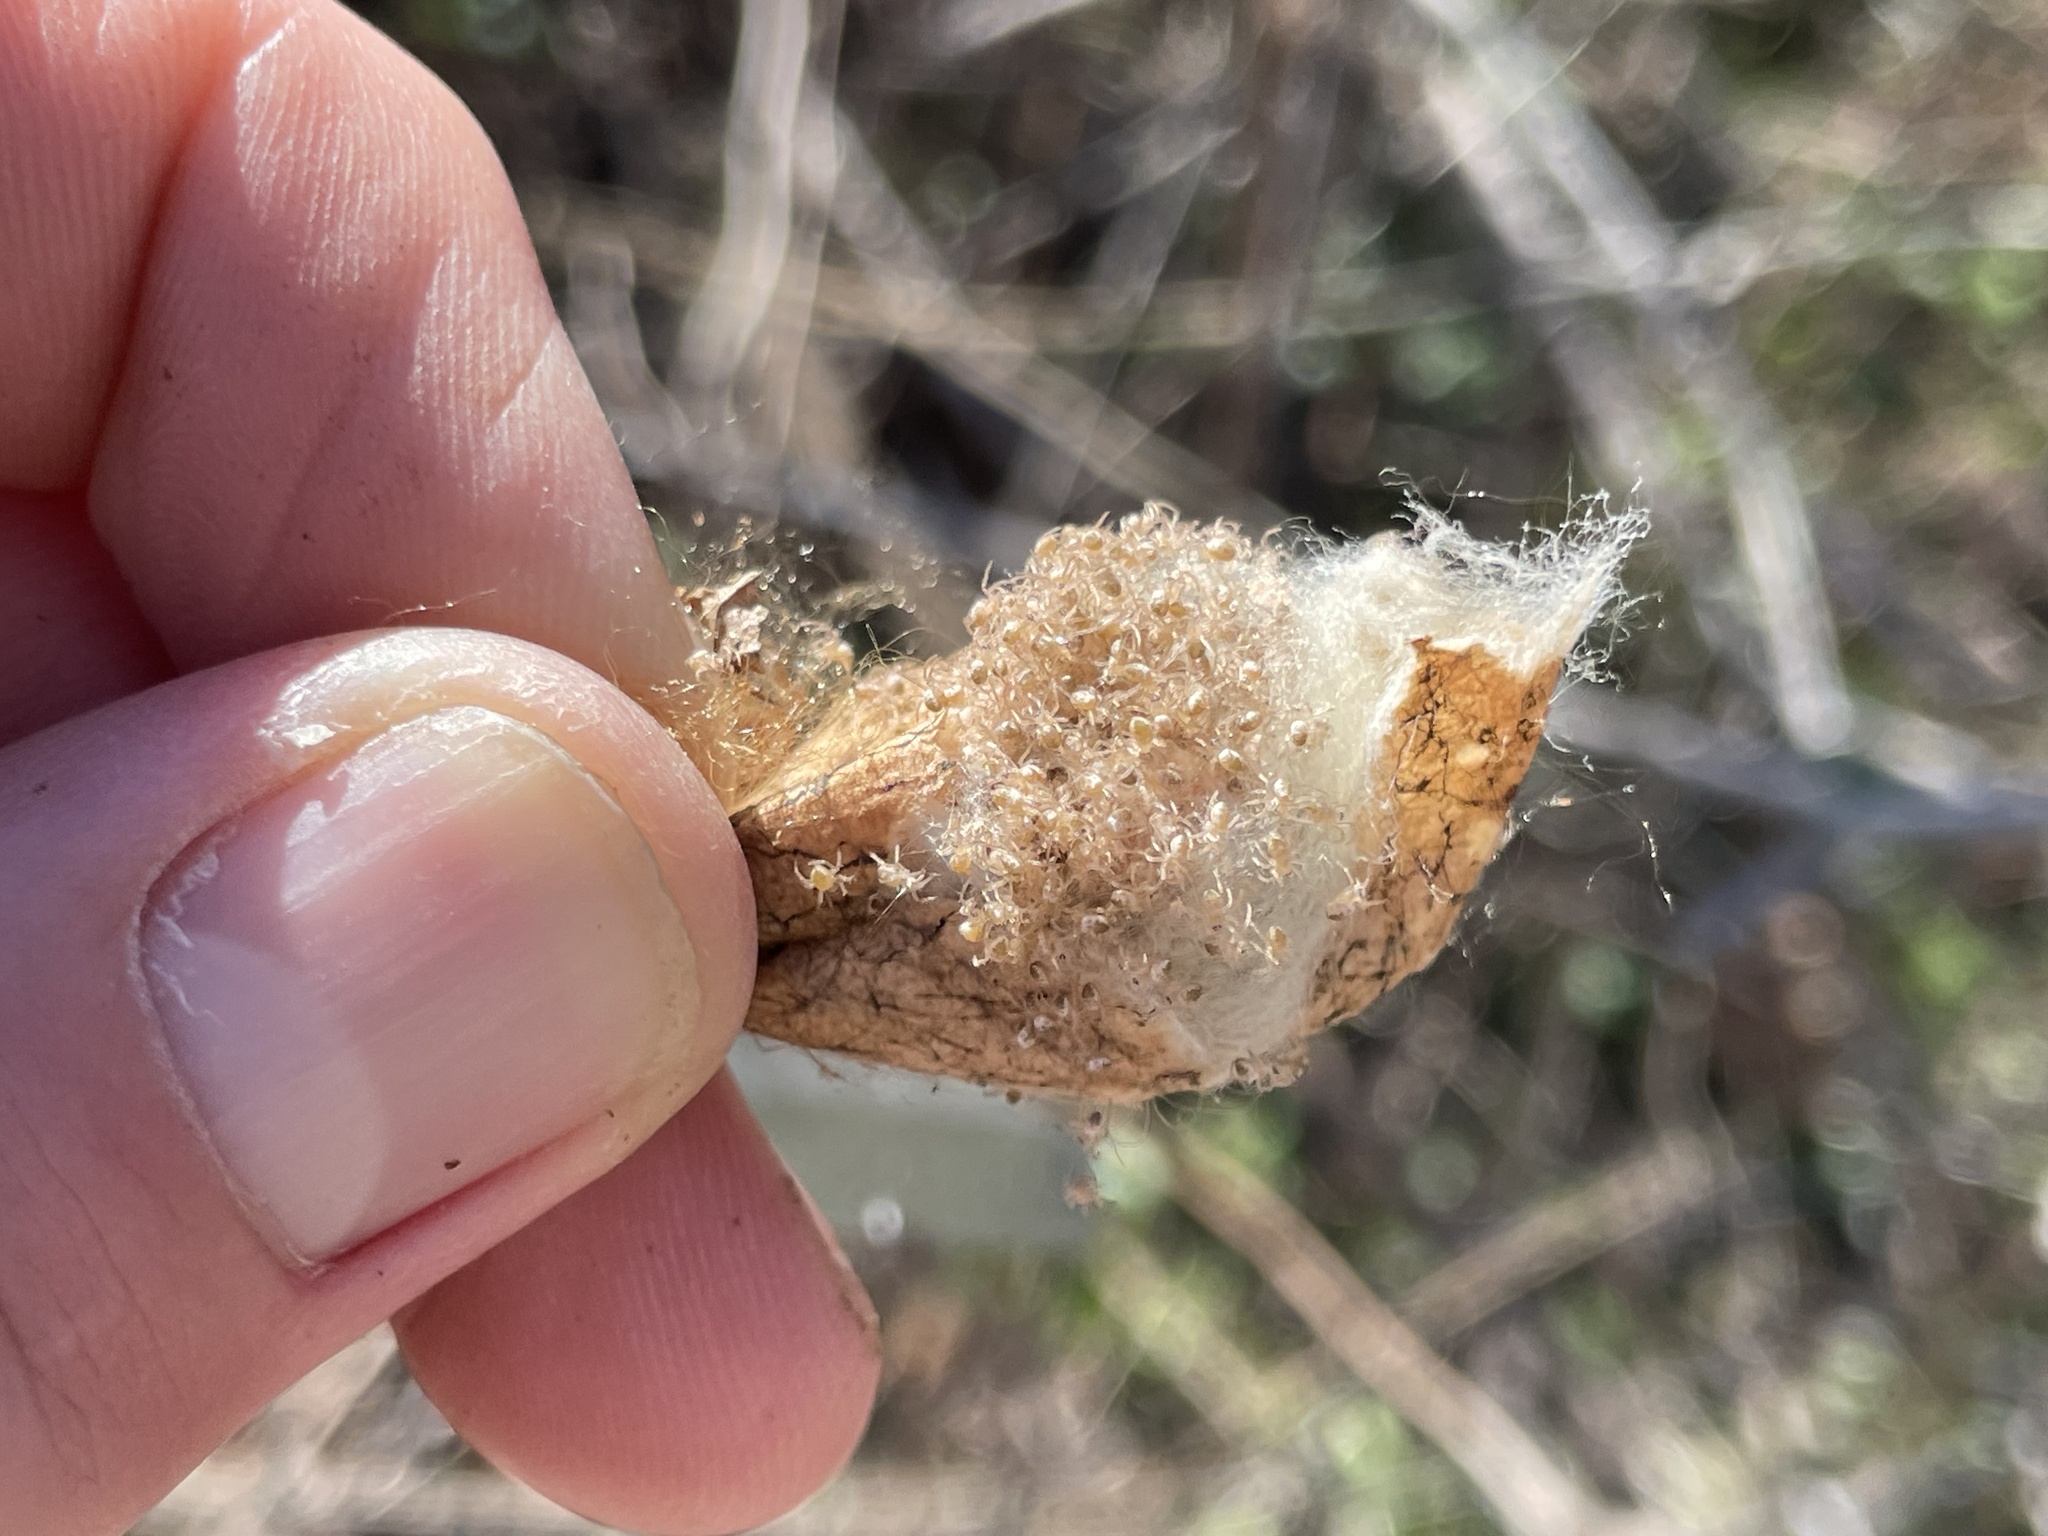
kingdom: Animalia
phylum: Arthropoda
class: Arachnida
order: Araneae
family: Araneidae
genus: Argiope
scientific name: Argiope aurantia
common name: Orb weavers
